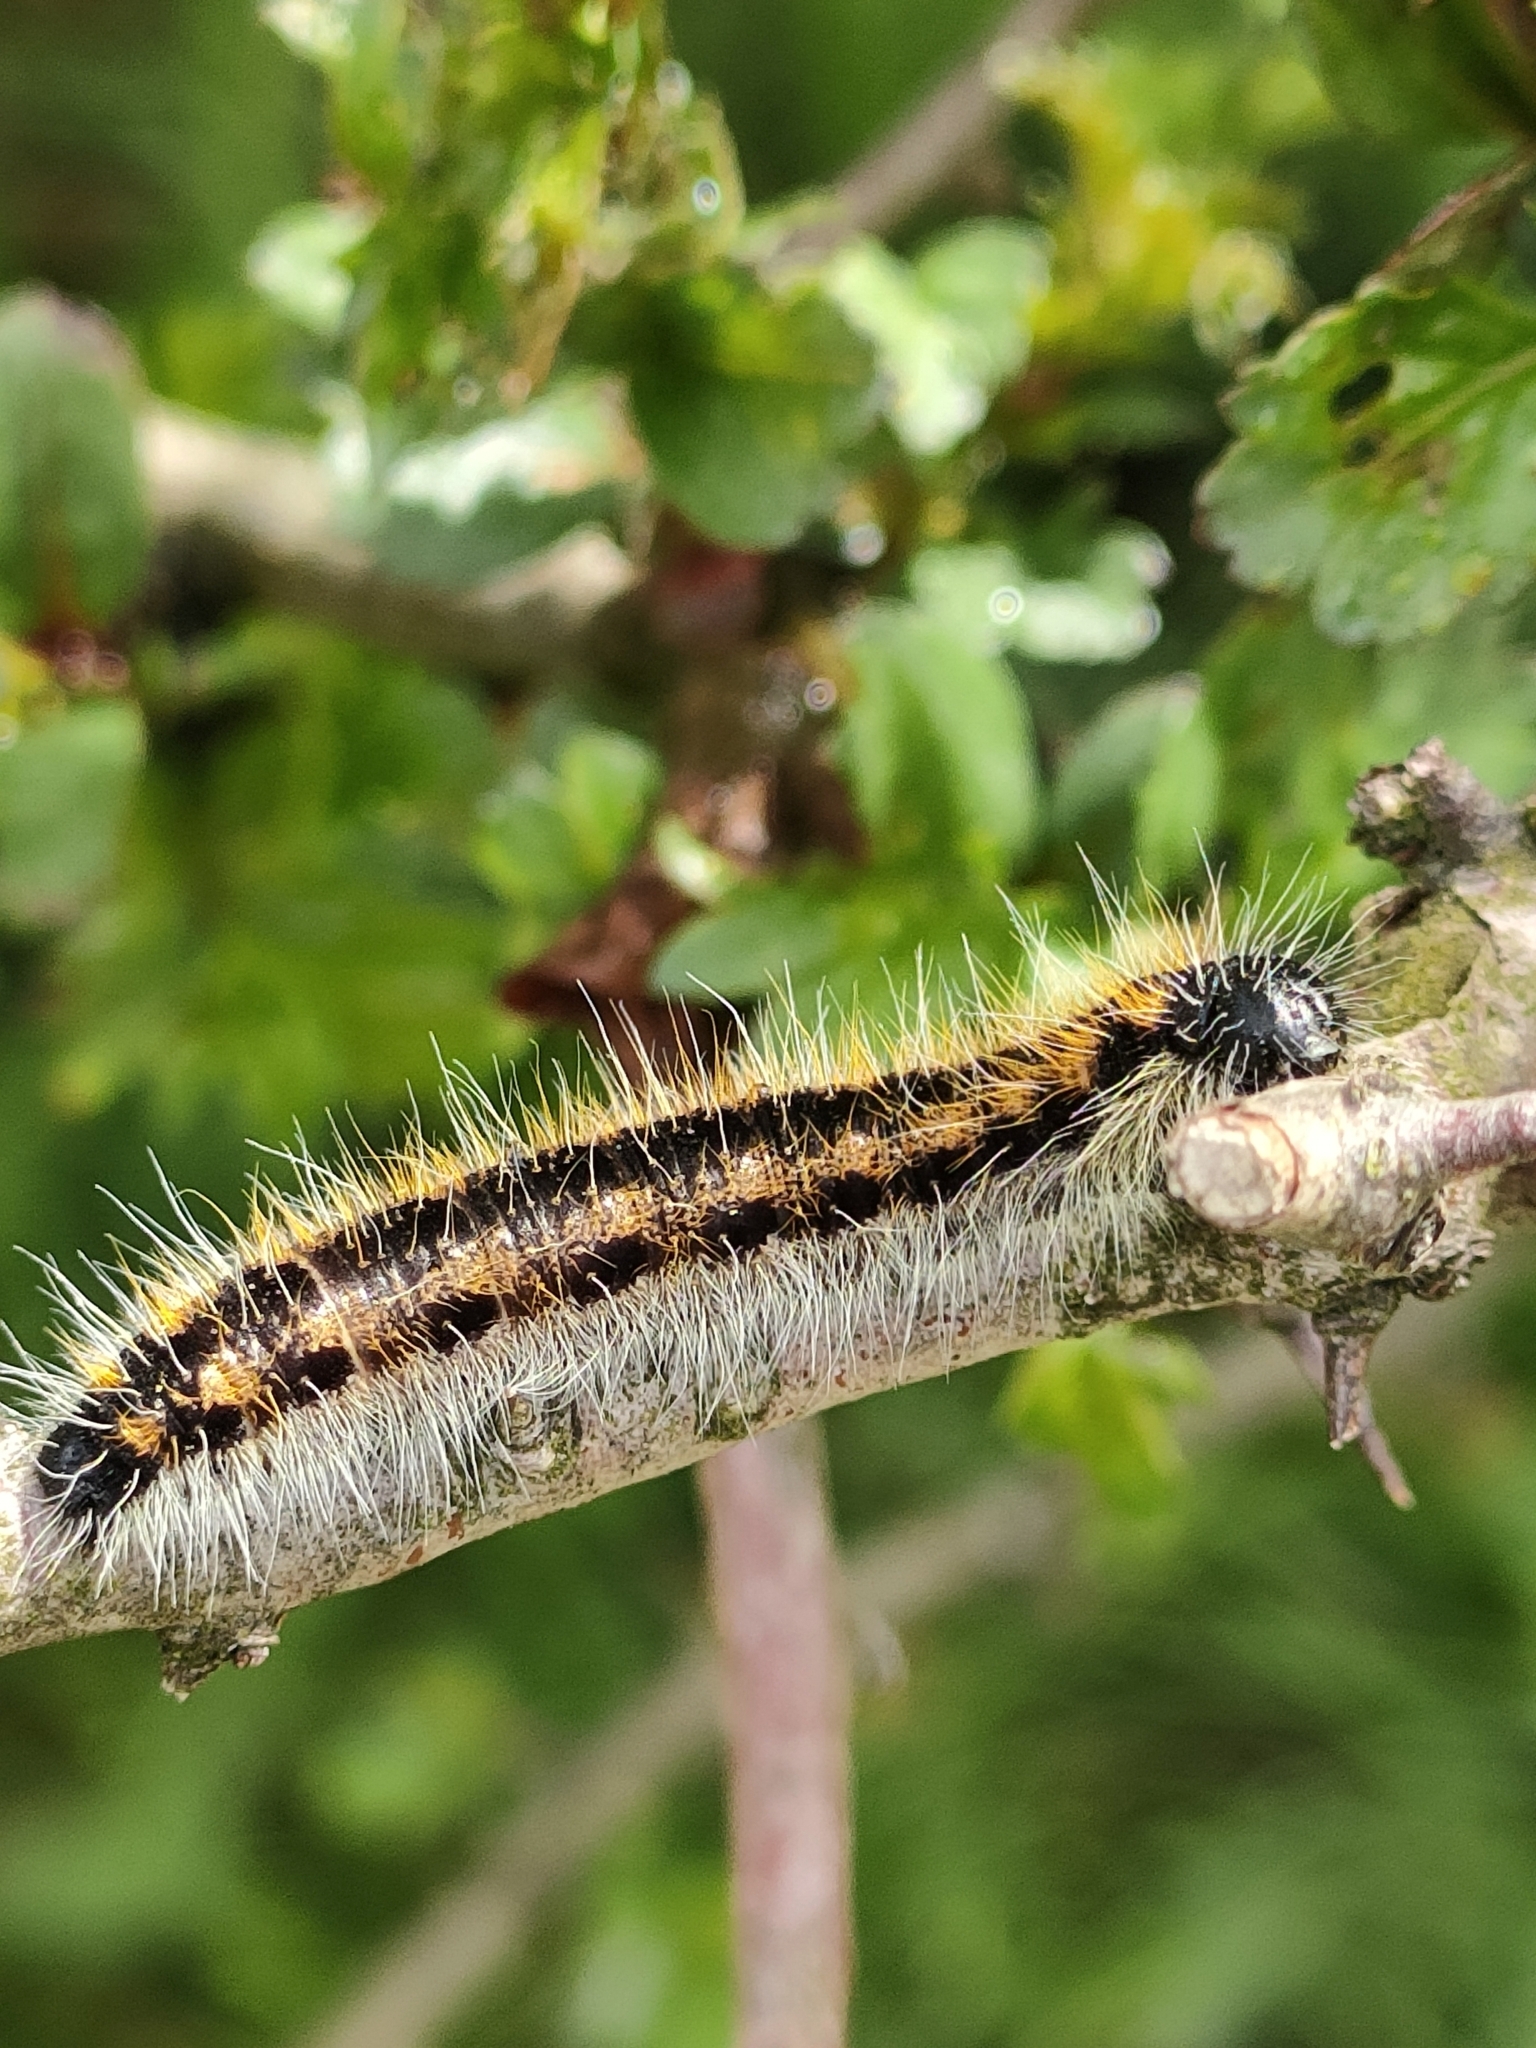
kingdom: Animalia
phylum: Arthropoda
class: Insecta
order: Lepidoptera
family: Pieridae
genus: Aporia
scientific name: Aporia crataegi
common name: Black-veined white
